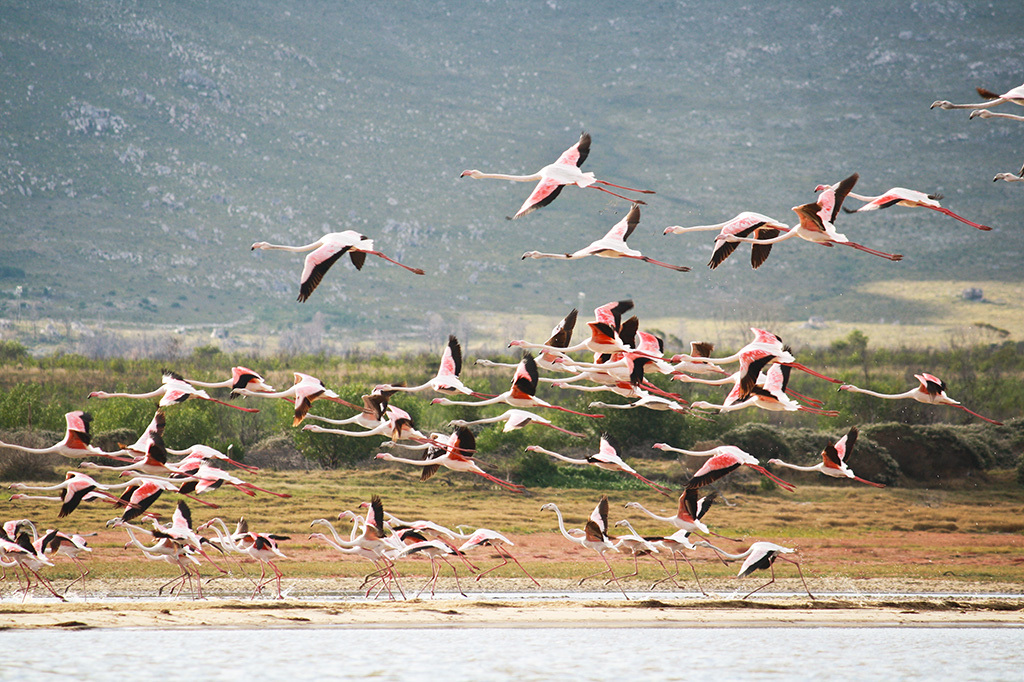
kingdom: Animalia
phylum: Chordata
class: Aves
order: Phoenicopteriformes
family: Phoenicopteridae
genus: Phoenicopterus
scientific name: Phoenicopterus roseus
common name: Greater flamingo
